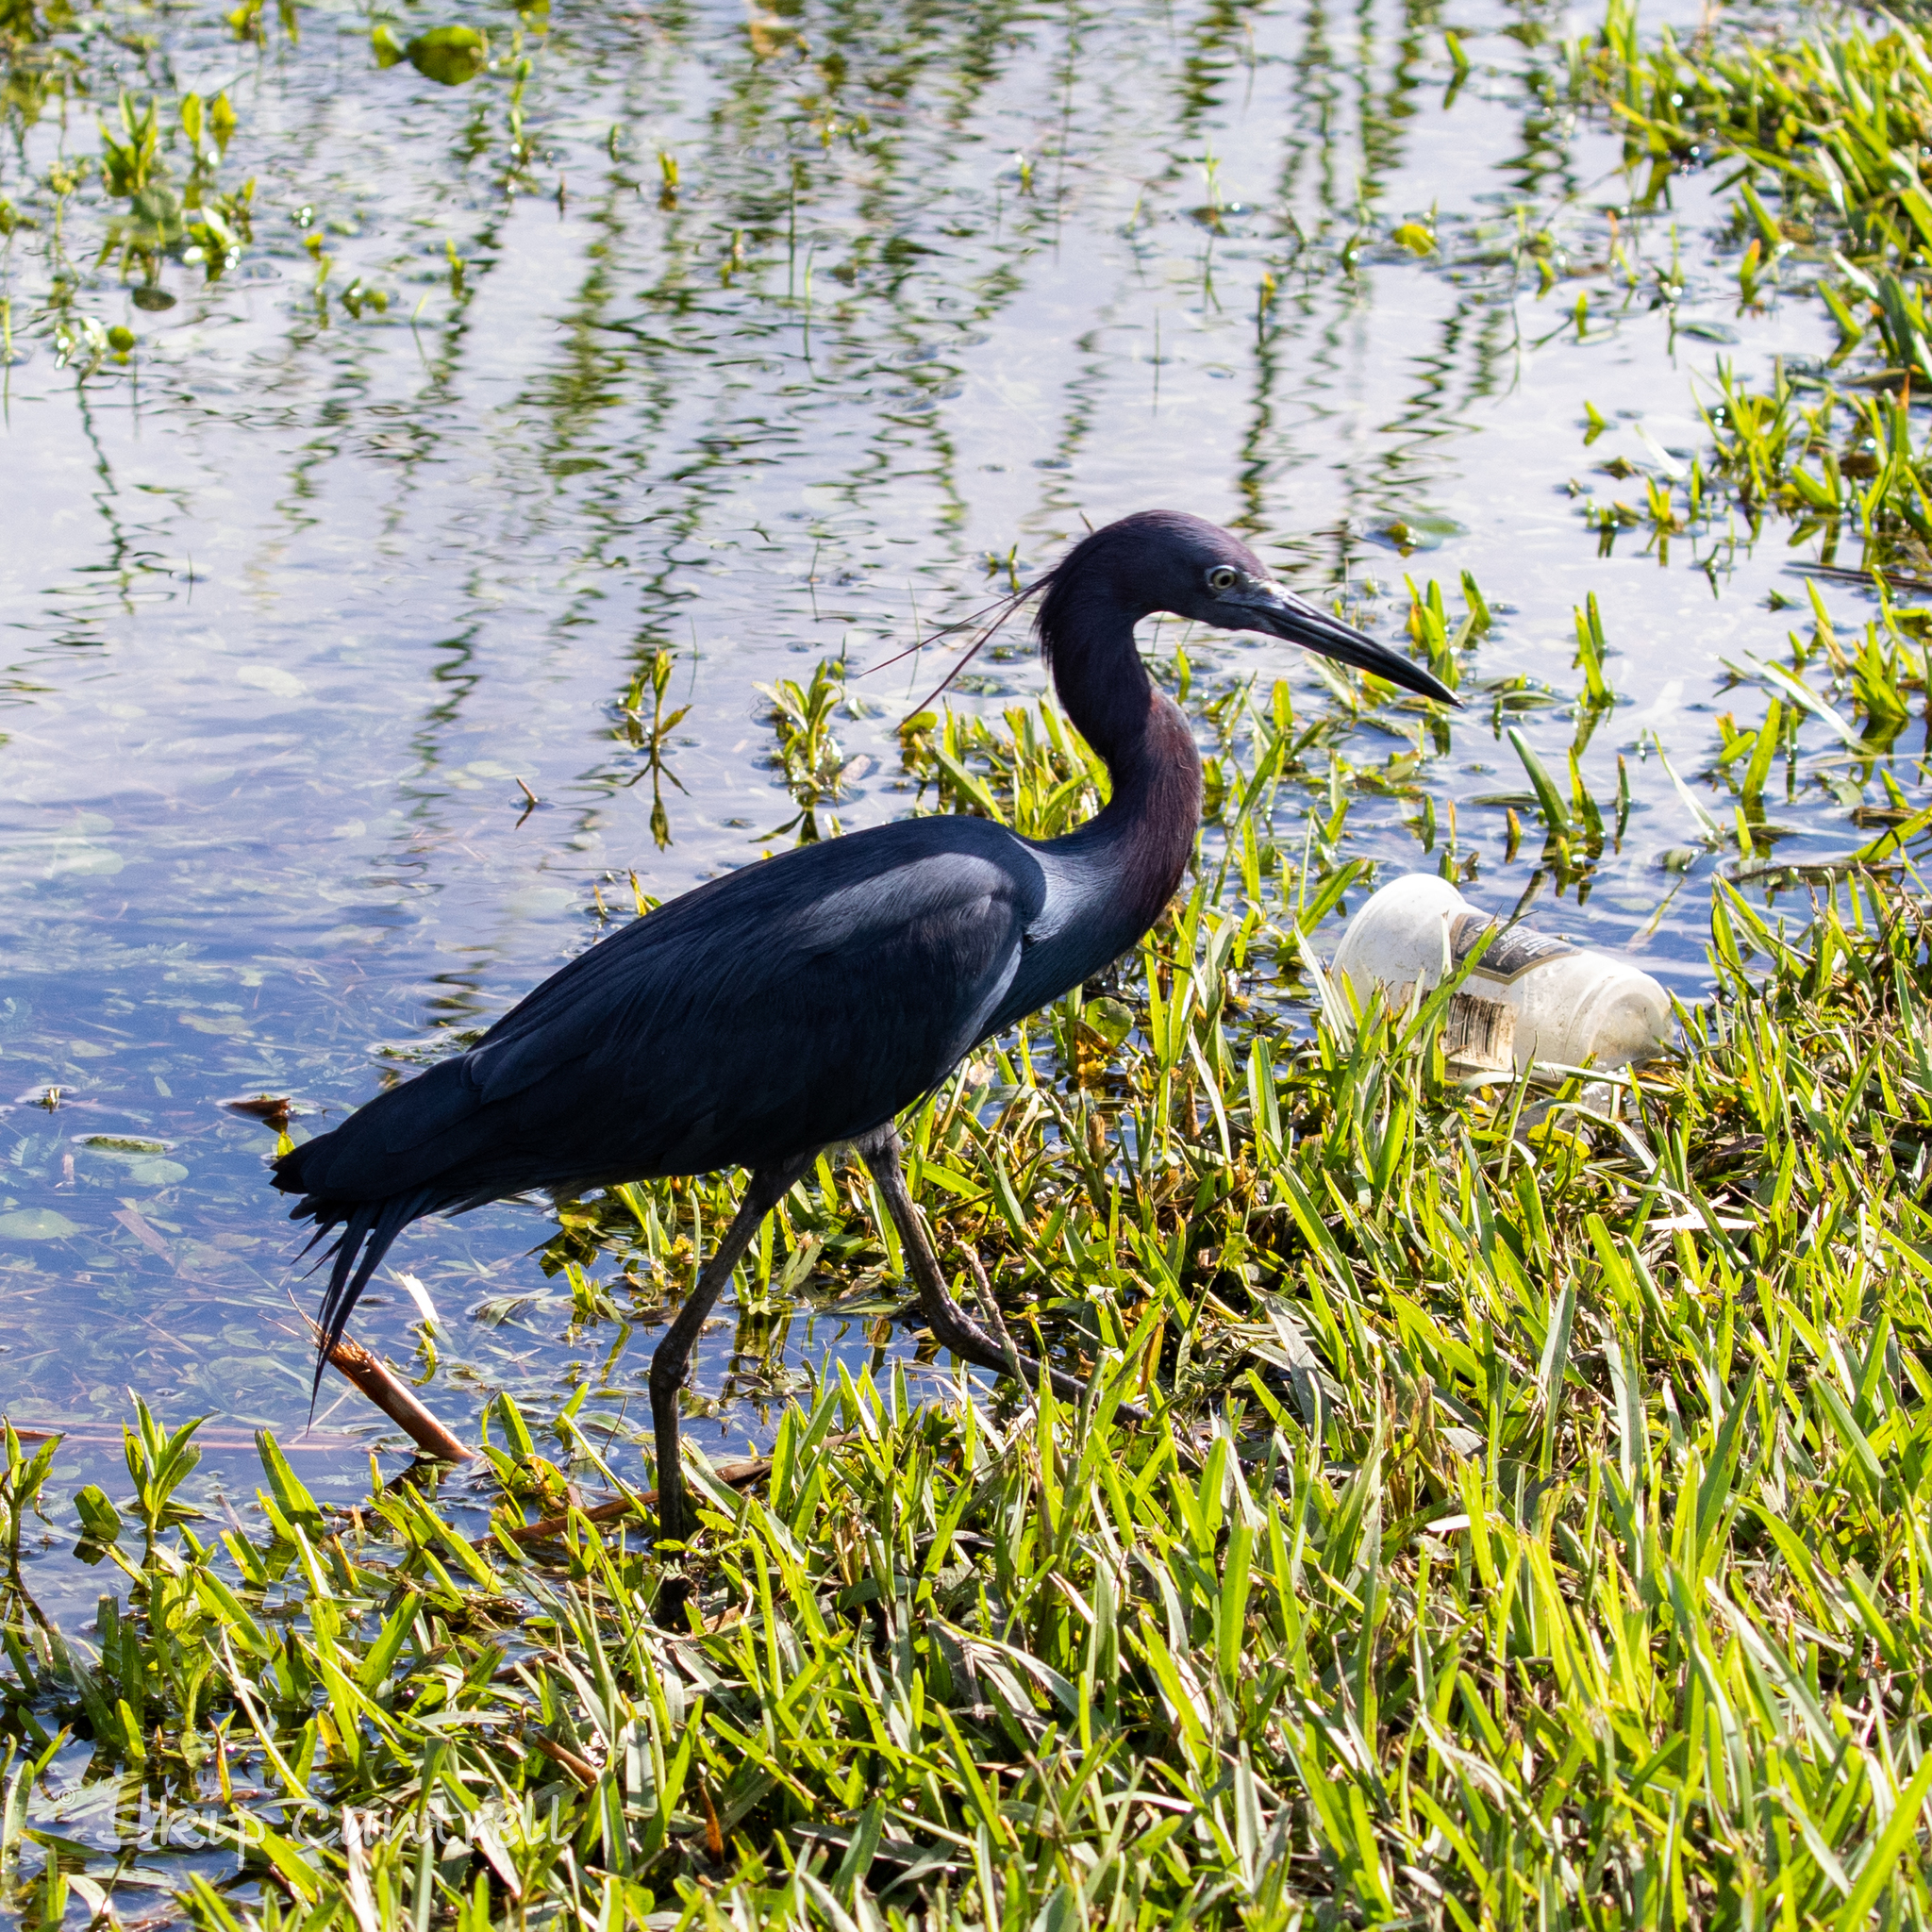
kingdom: Animalia
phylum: Chordata
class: Aves
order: Pelecaniformes
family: Ardeidae
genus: Egretta
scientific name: Egretta caerulea
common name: Little blue heron
